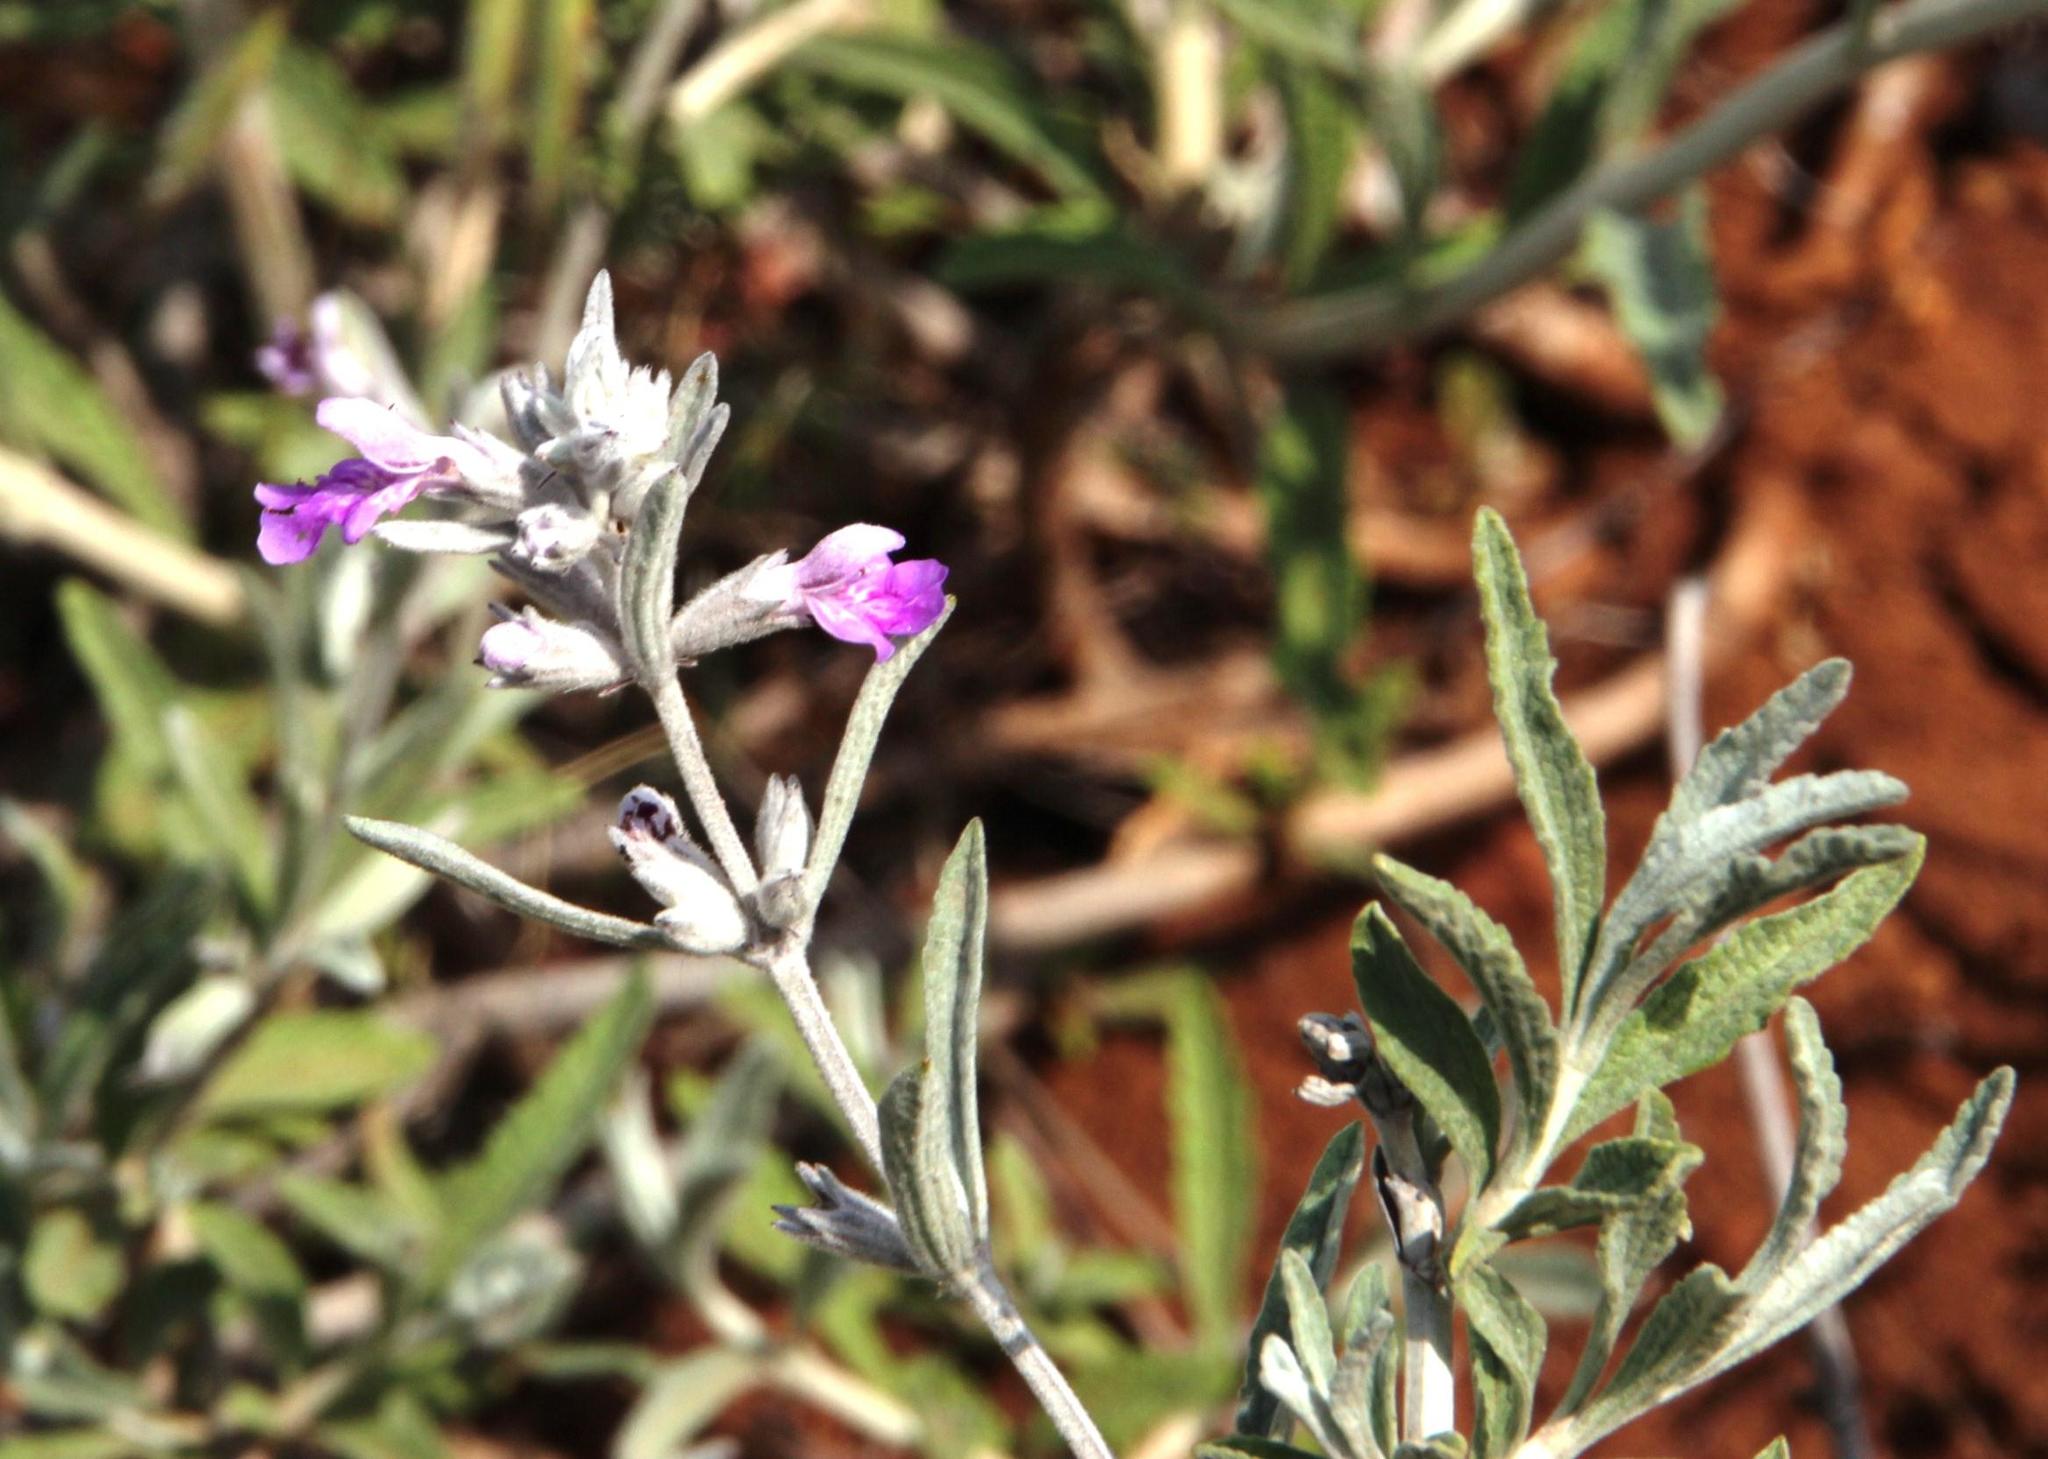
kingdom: Plantae
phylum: Tracheophyta
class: Magnoliopsida
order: Lamiales
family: Lamiaceae
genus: Stachys
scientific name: Stachys rugosa
